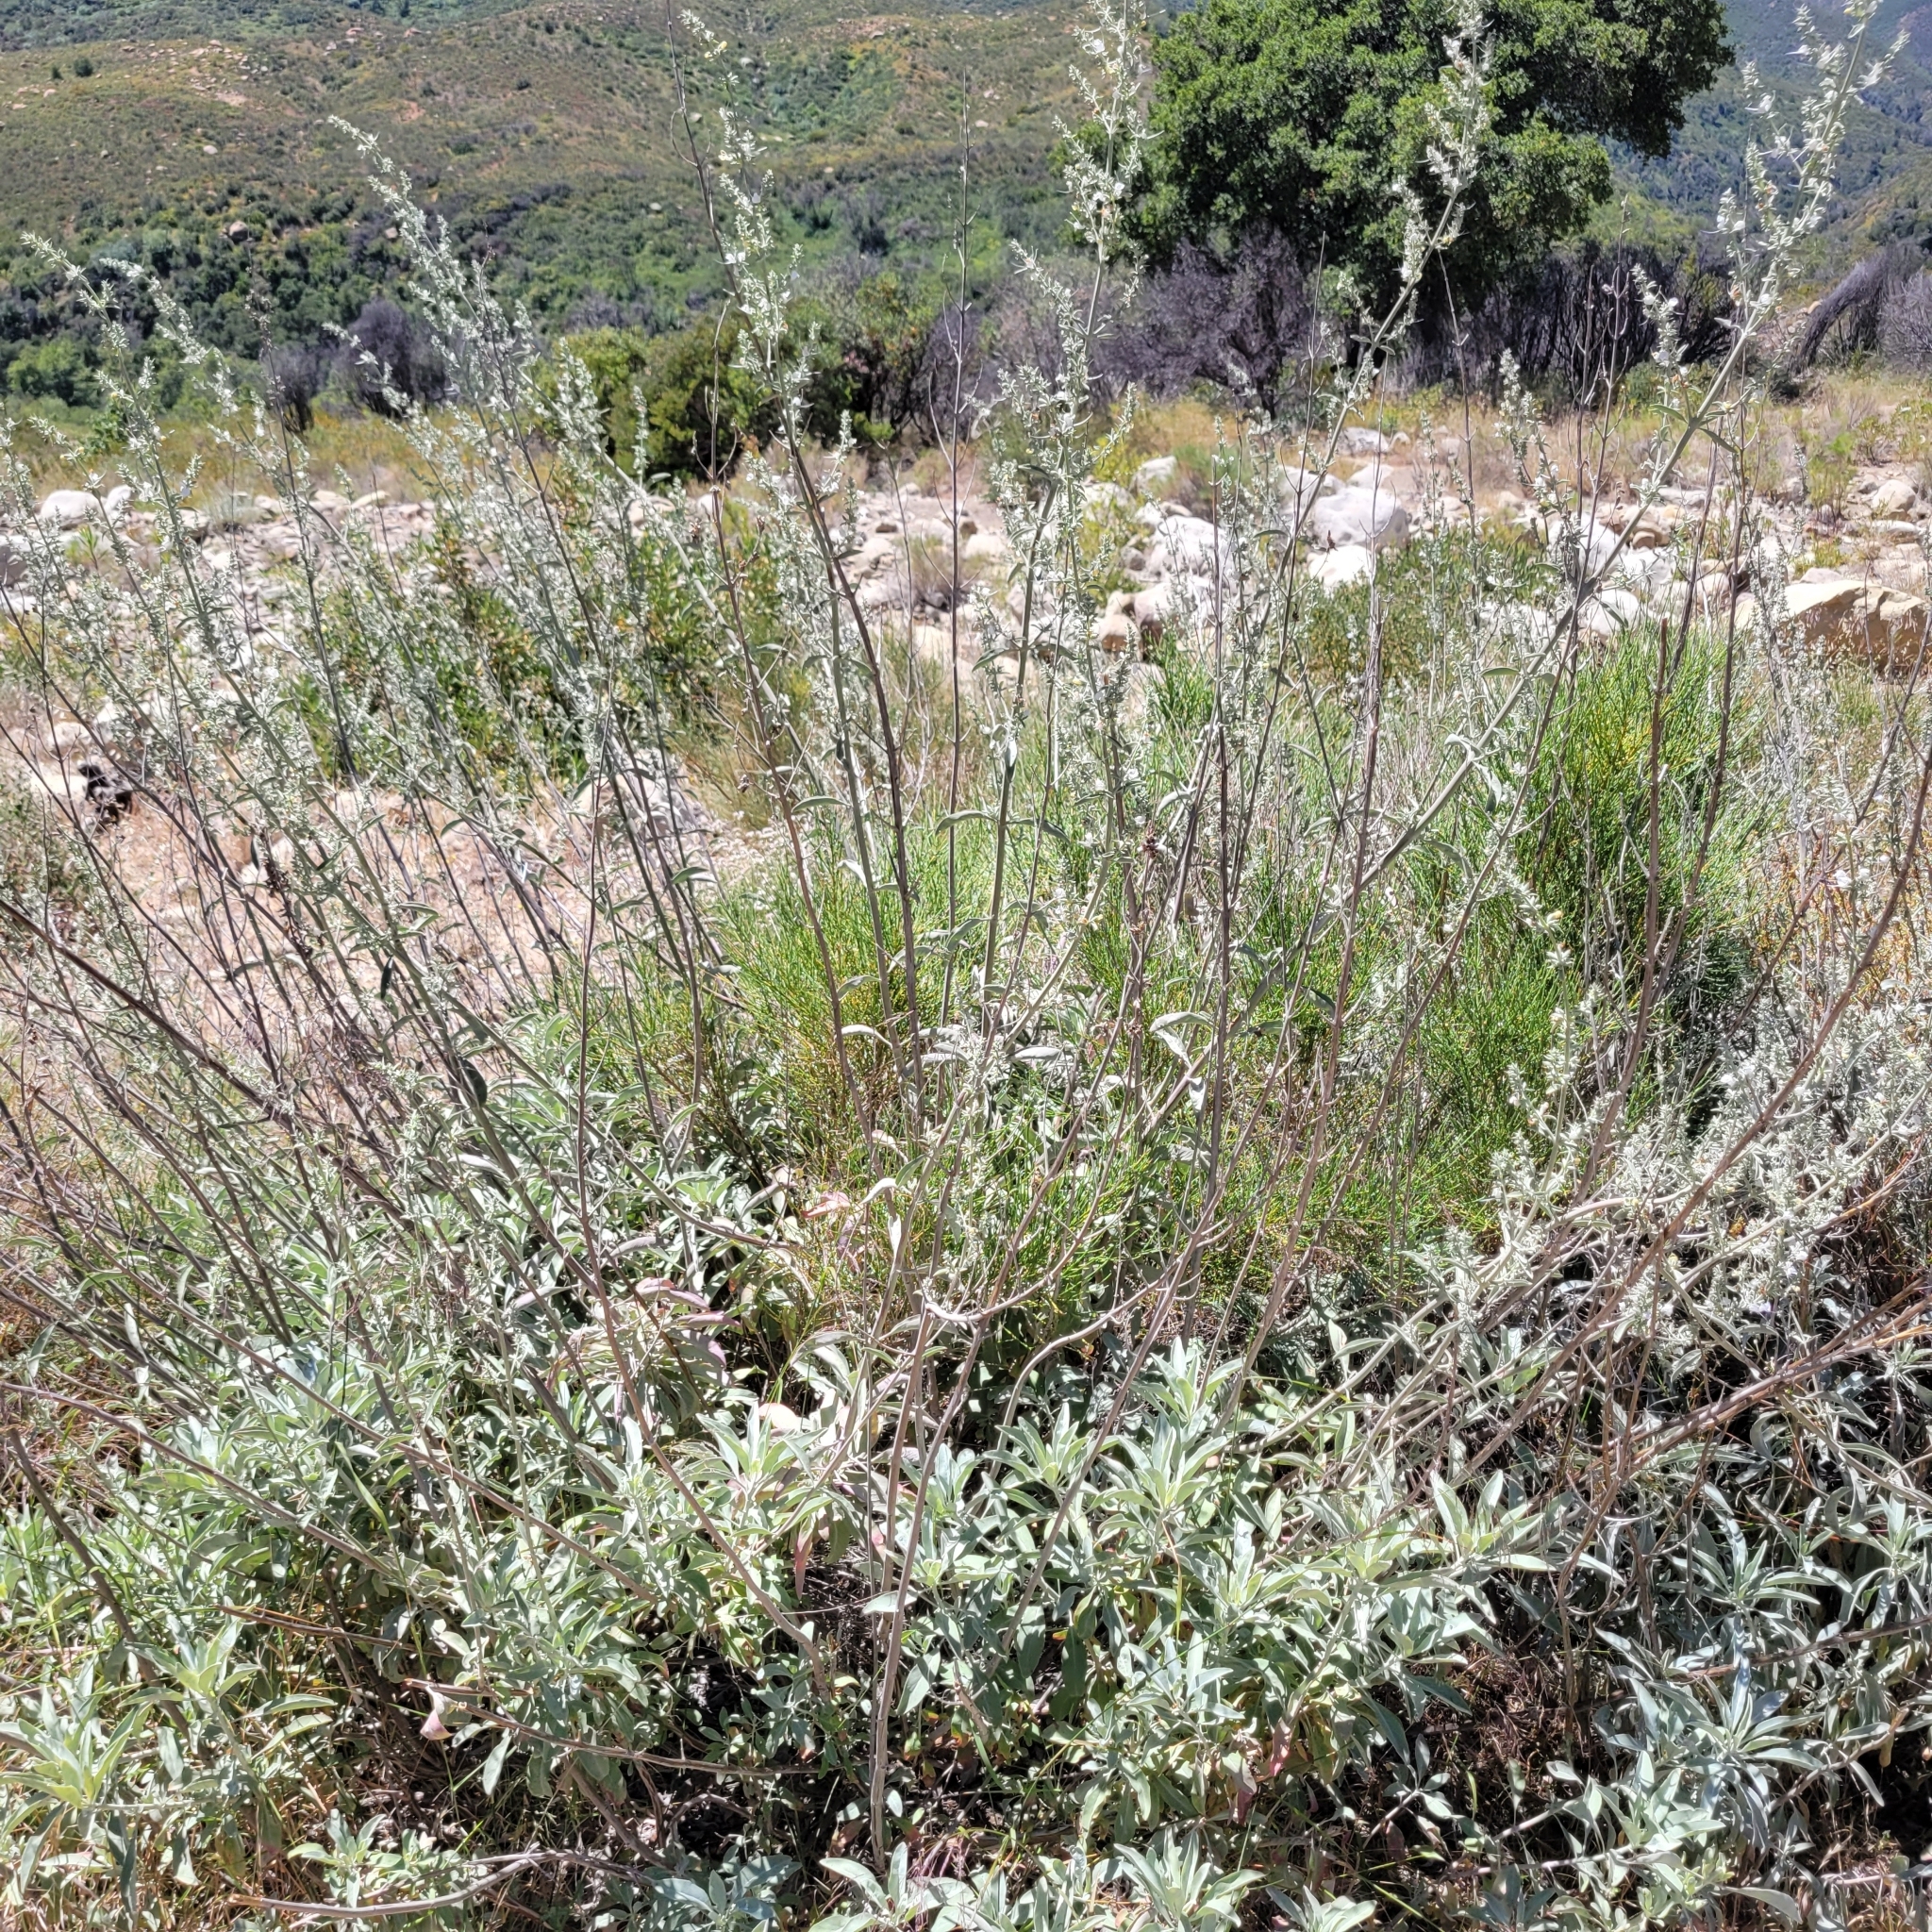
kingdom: Plantae
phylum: Tracheophyta
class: Magnoliopsida
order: Lamiales
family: Lamiaceae
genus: Salvia
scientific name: Salvia apiana
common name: White sage
